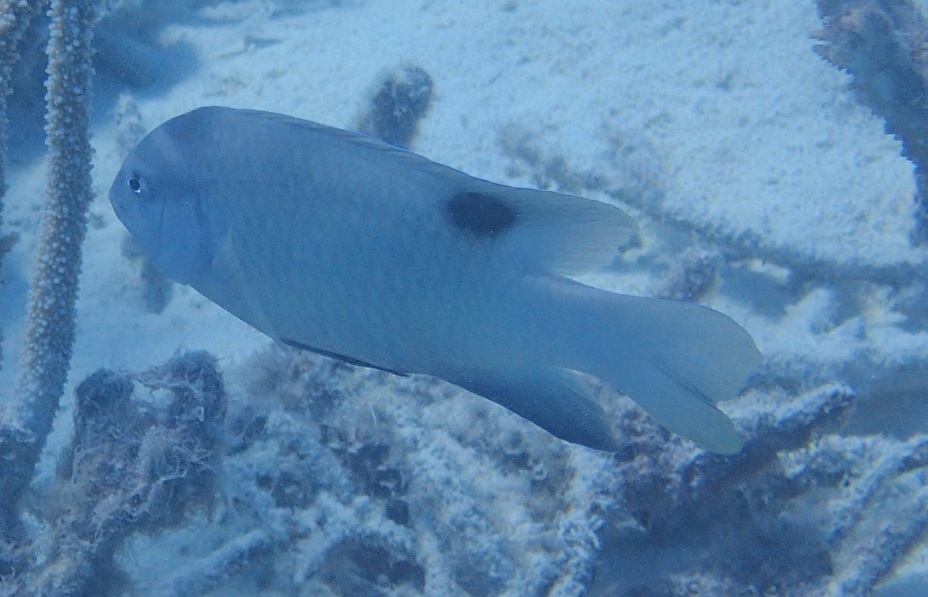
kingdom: Animalia
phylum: Chordata
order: Perciformes
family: Pomacentridae
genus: Dischistodus
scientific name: Dischistodus perspicillatus
